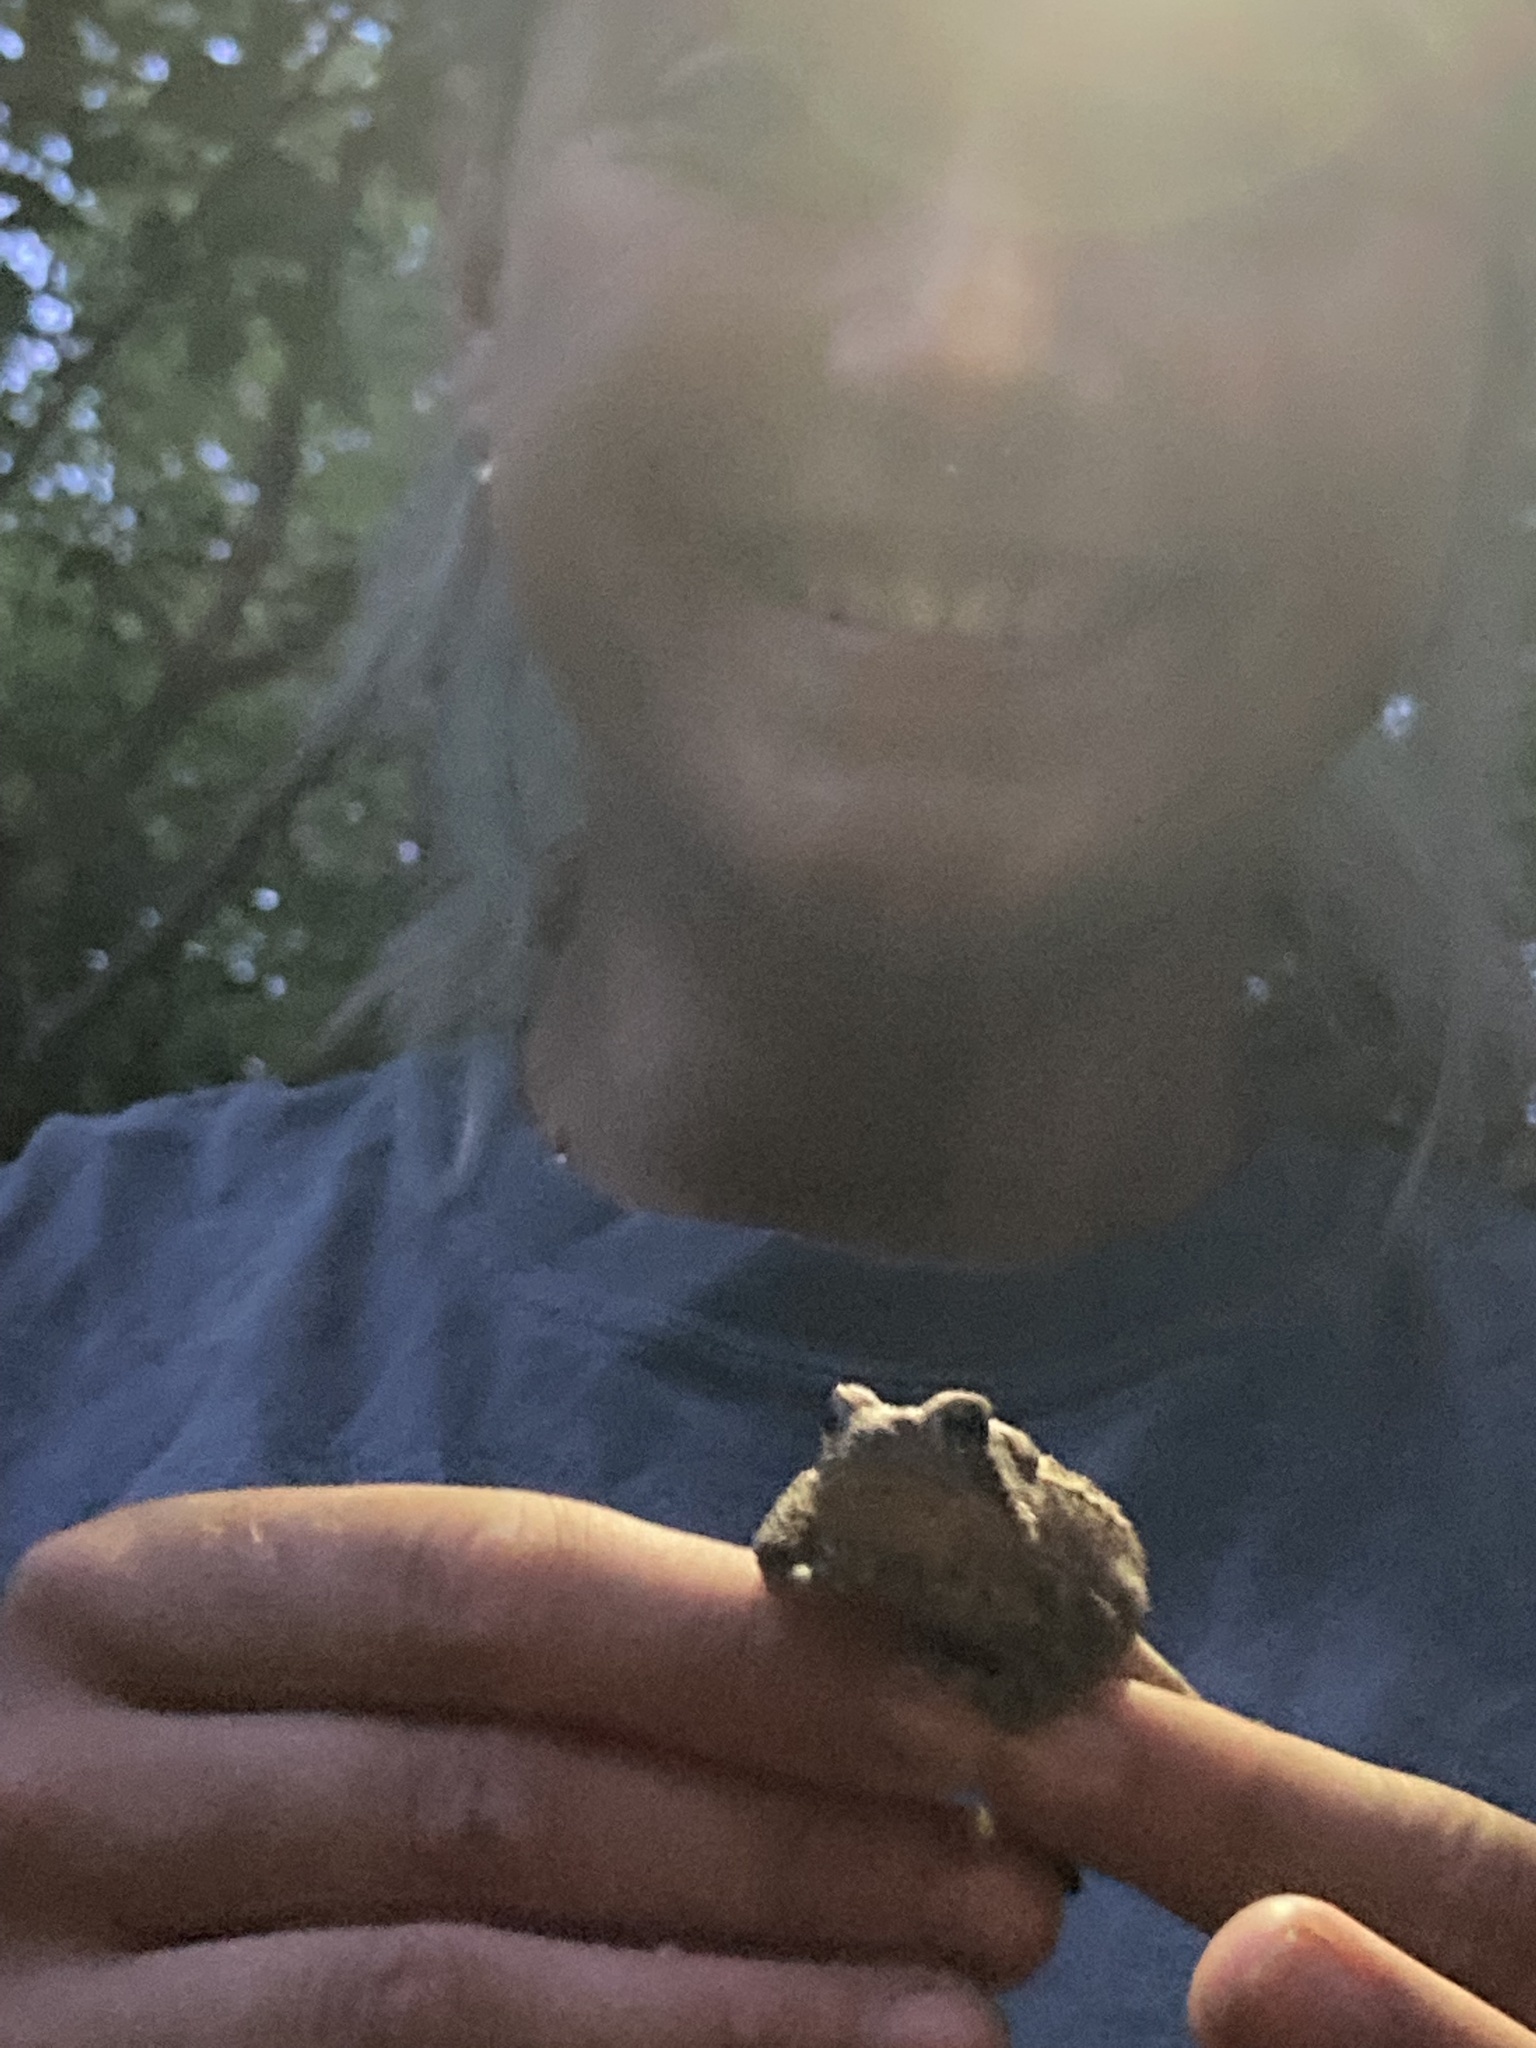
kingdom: Animalia
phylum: Chordata
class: Amphibia
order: Anura
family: Bufonidae
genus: Anaxyrus
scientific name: Anaxyrus americanus
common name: American toad
